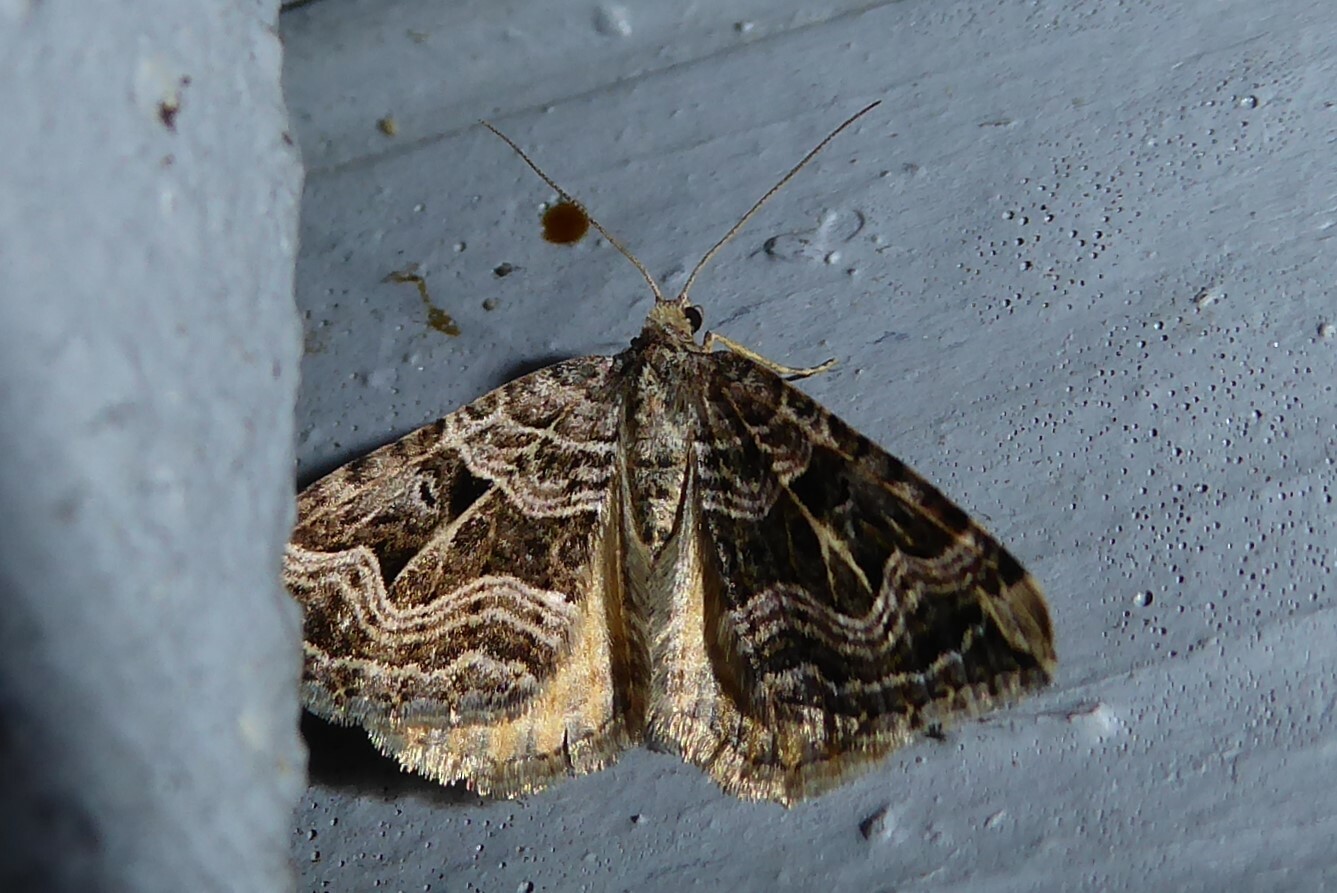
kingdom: Animalia
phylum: Arthropoda
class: Insecta
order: Lepidoptera
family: Geometridae
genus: Xanthorhoe
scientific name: Xanthorhoe semifissata
